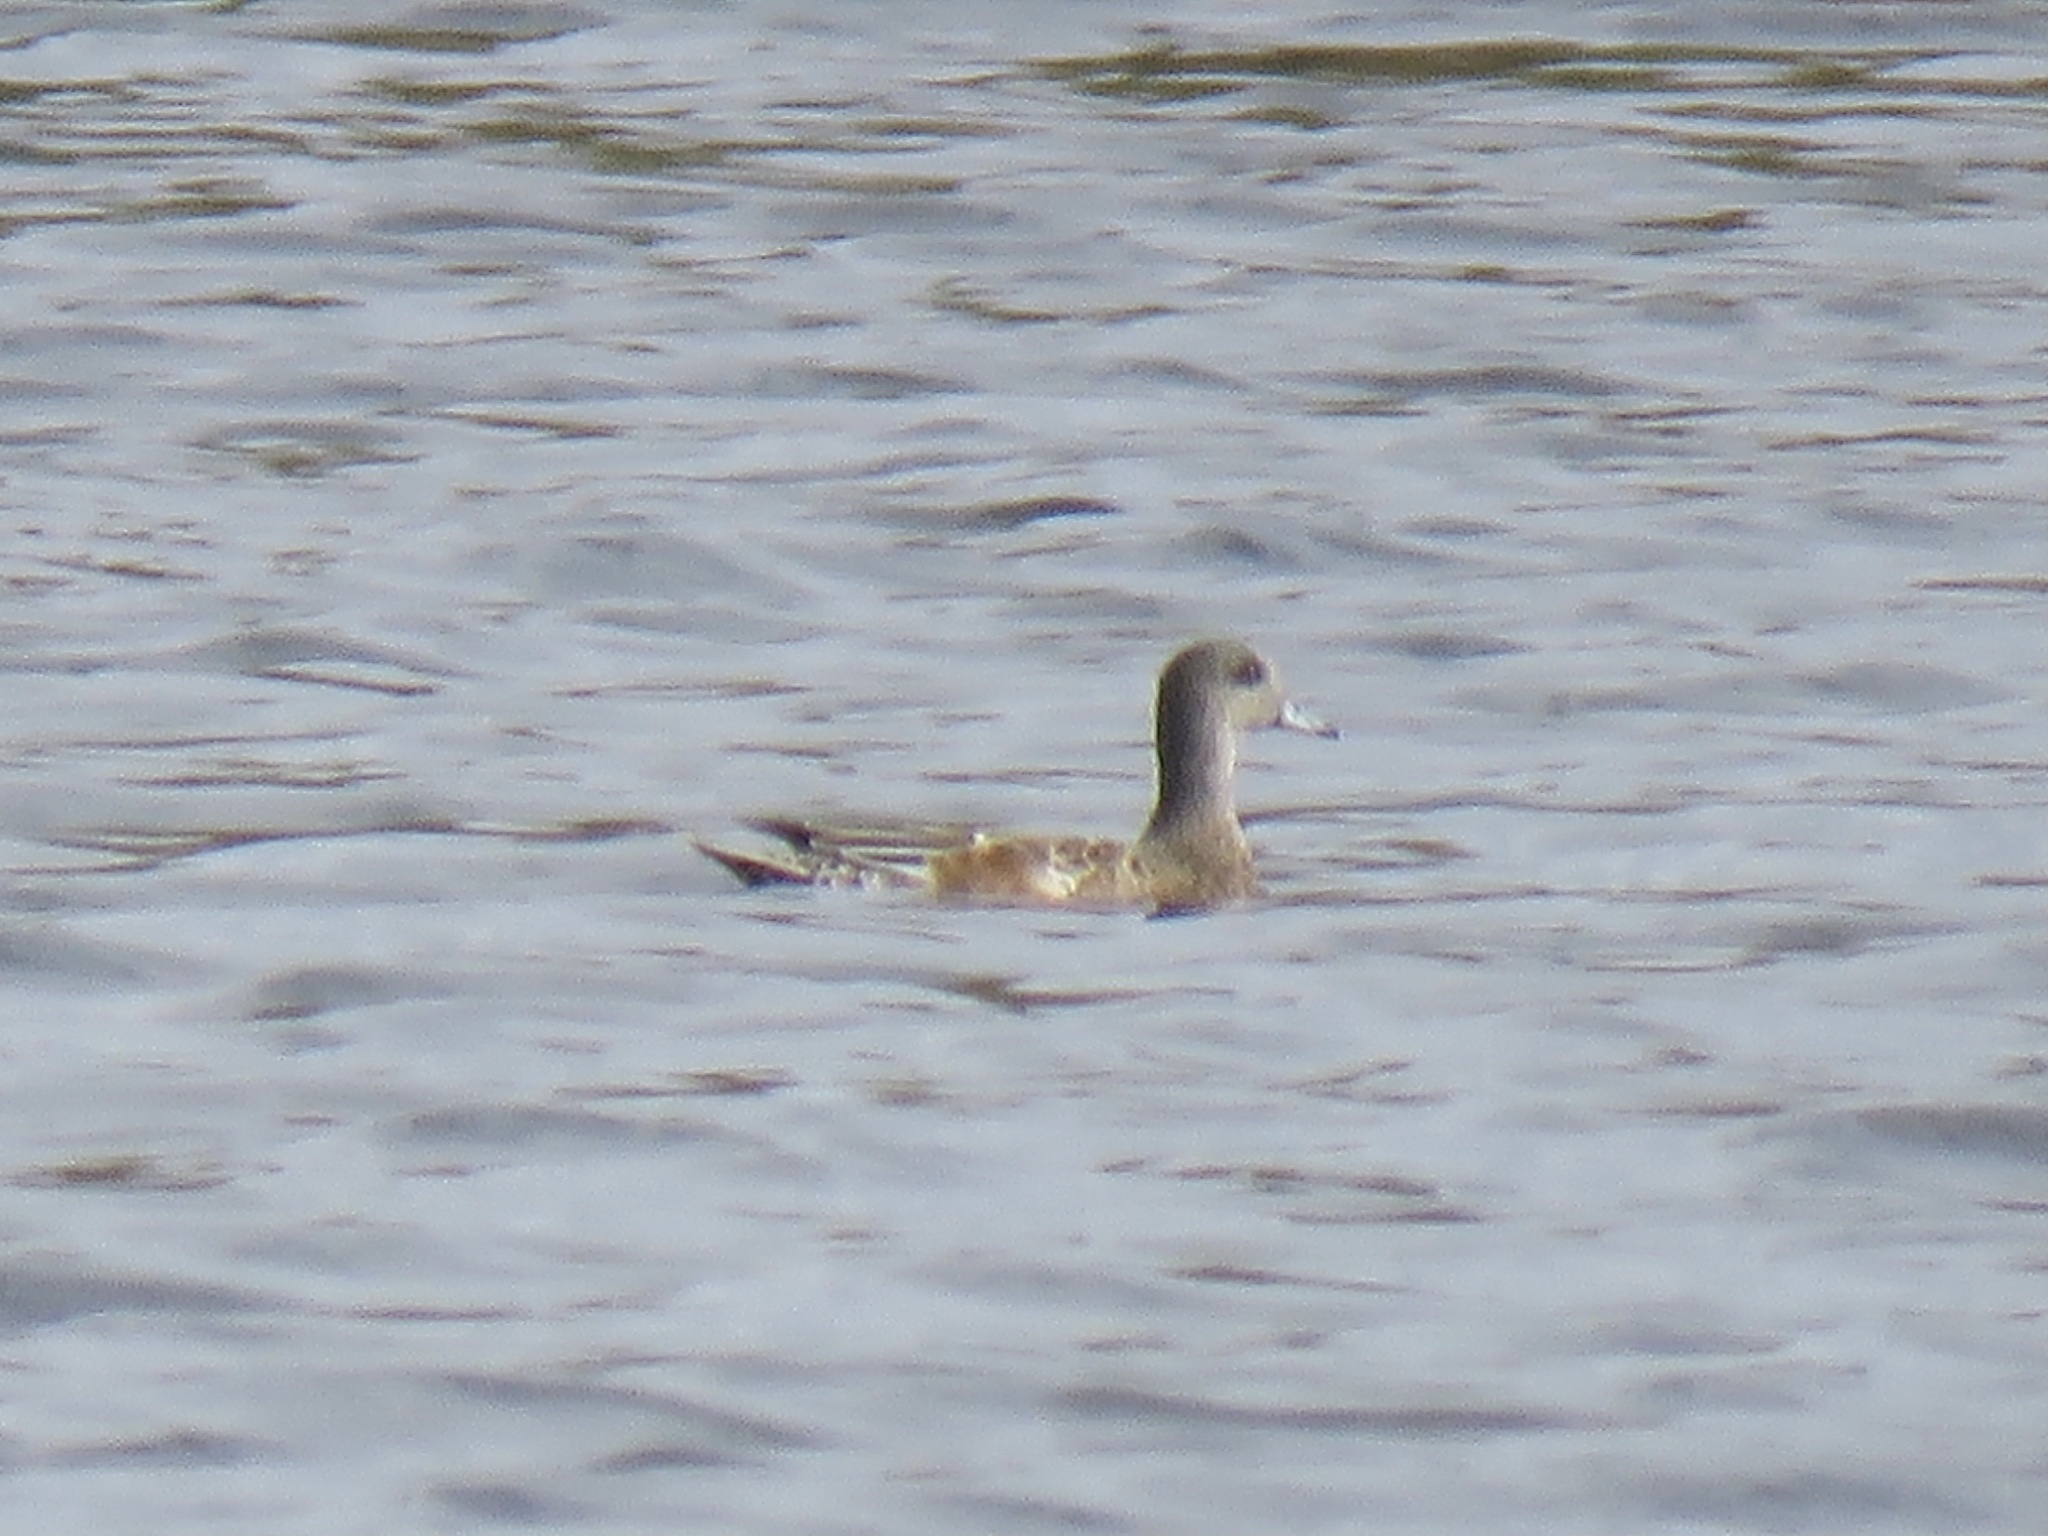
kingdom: Animalia
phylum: Chordata
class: Aves
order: Anseriformes
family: Anatidae
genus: Mareca
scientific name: Mareca americana
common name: American wigeon
